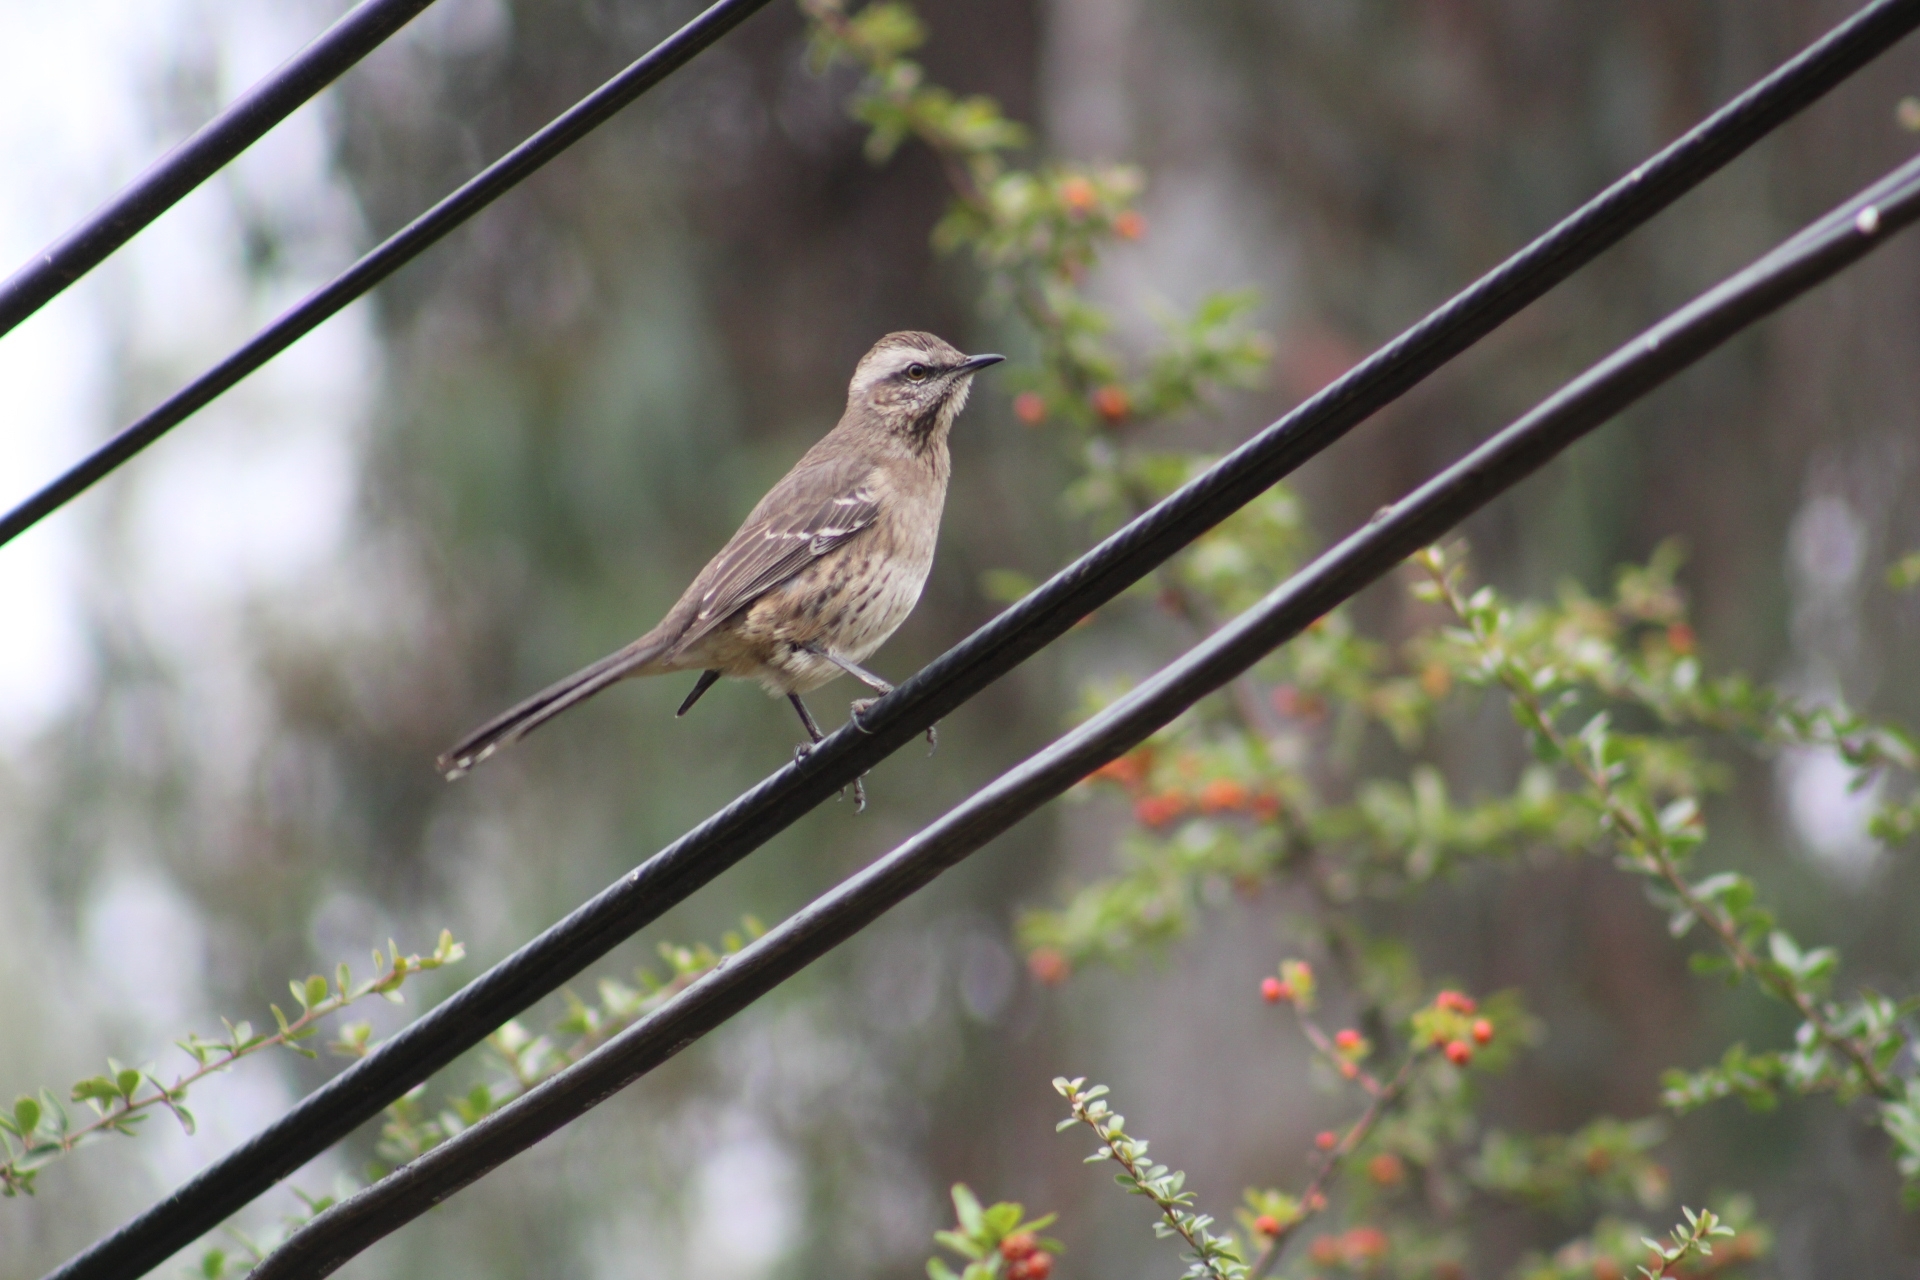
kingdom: Animalia
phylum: Chordata
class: Aves
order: Passeriformes
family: Mimidae
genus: Mimus
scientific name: Mimus thenca
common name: Chilean mockingbird
